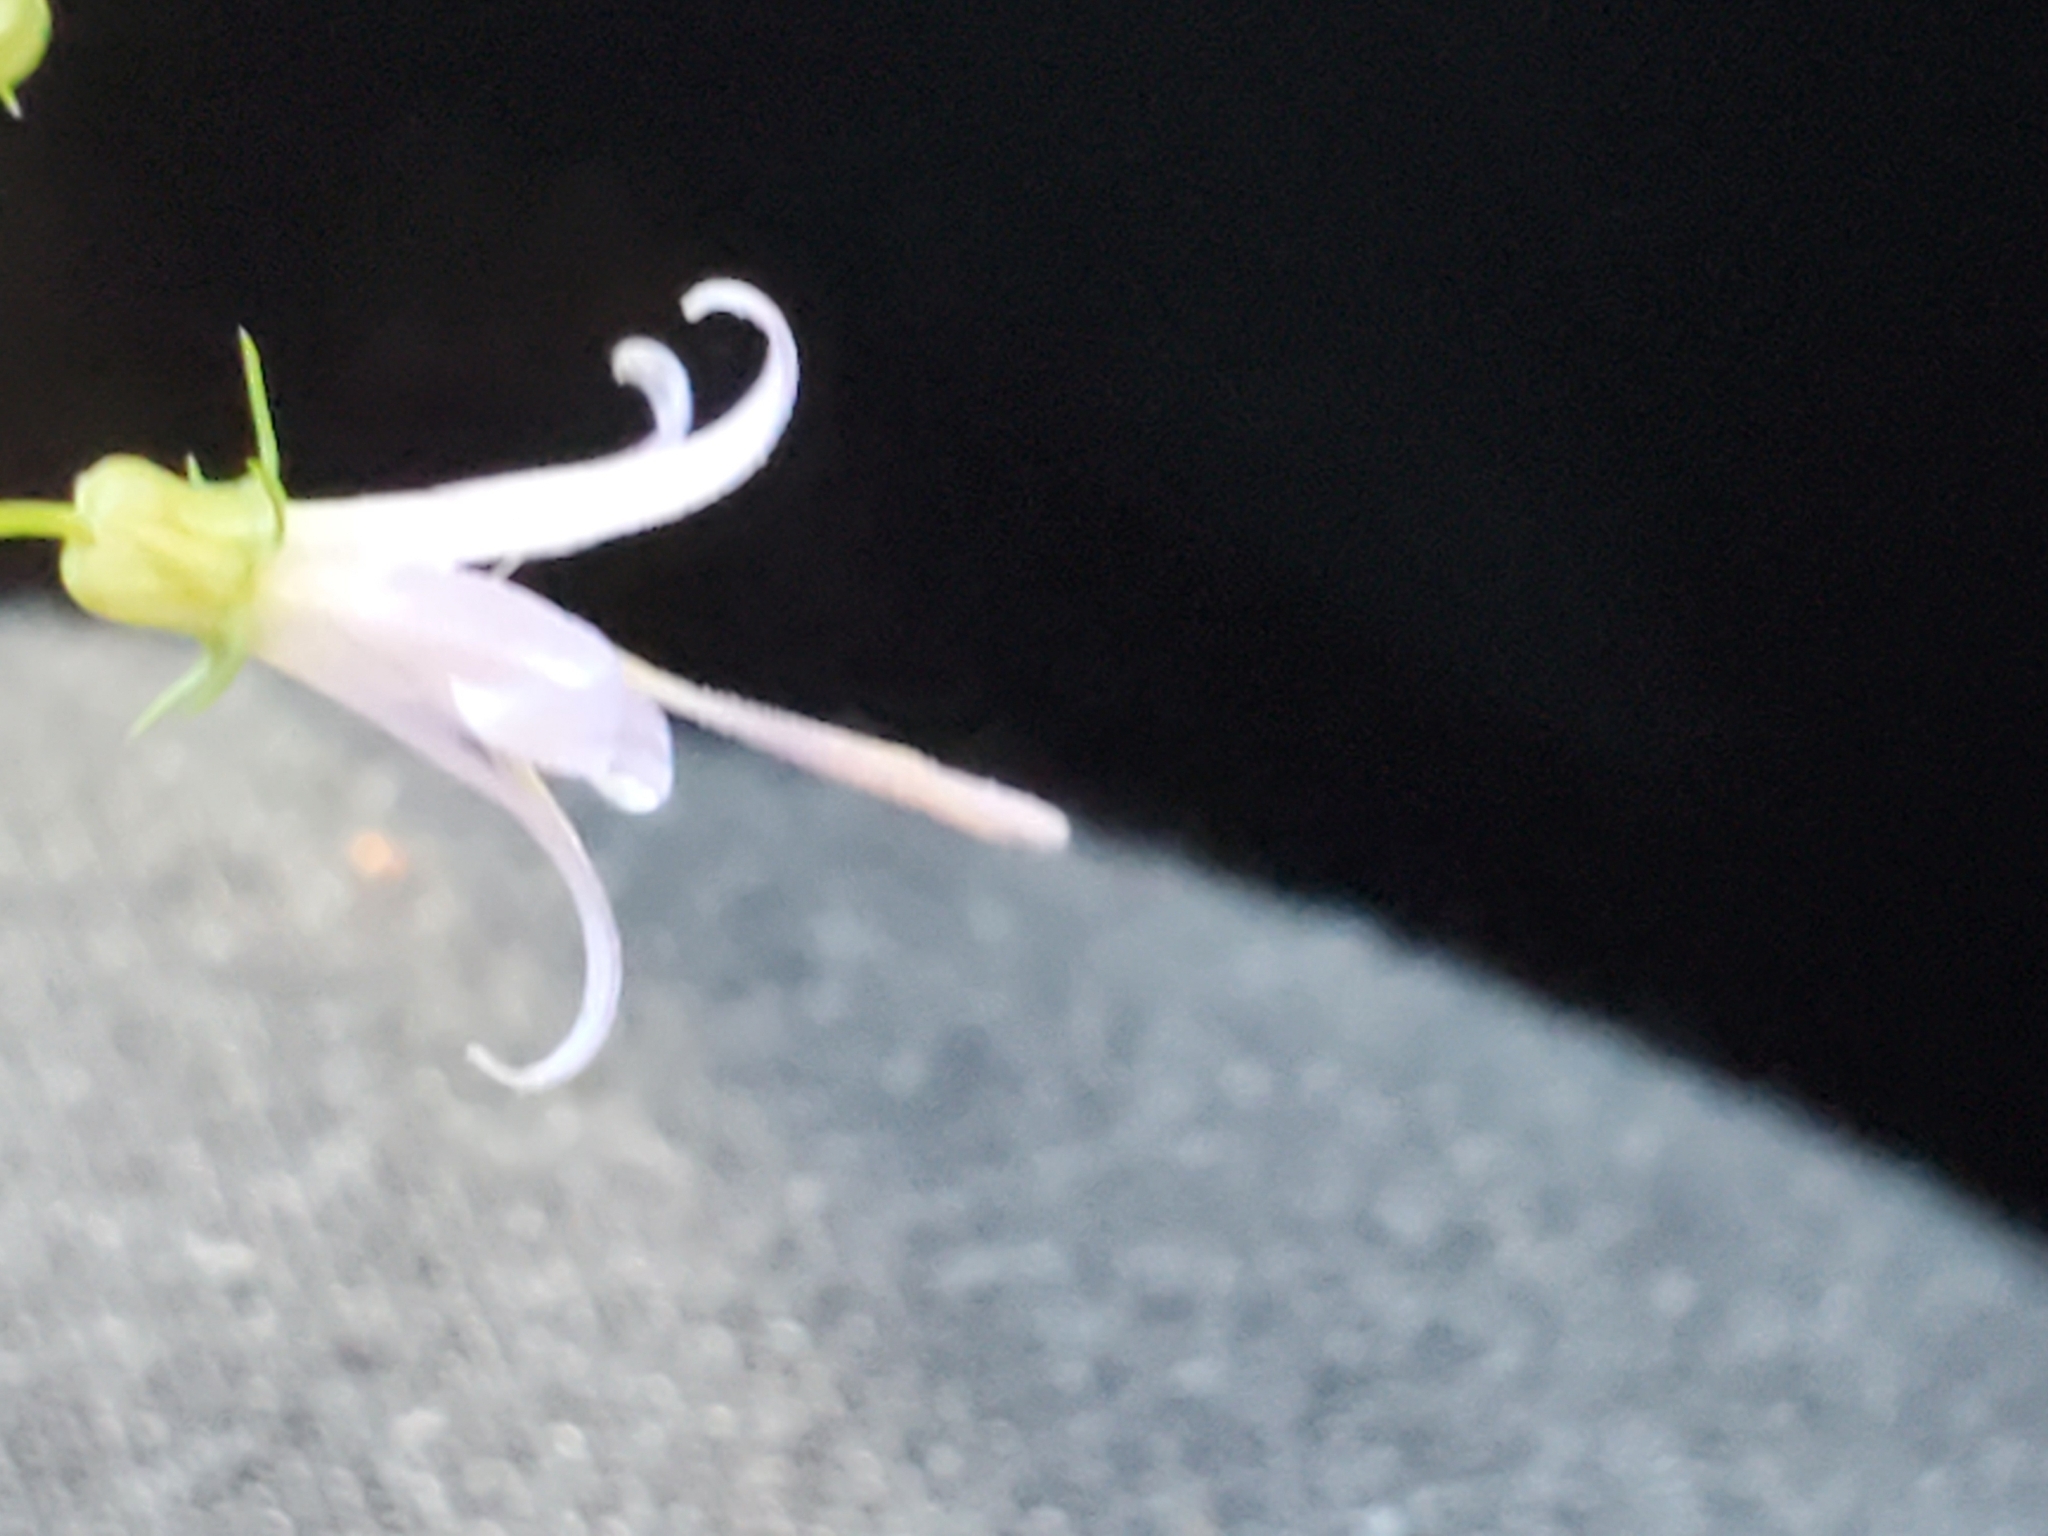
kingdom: Plantae
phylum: Tracheophyta
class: Magnoliopsida
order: Asterales
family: Campanulaceae
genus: Smithiastrum
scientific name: Smithiastrum prenanthoides
